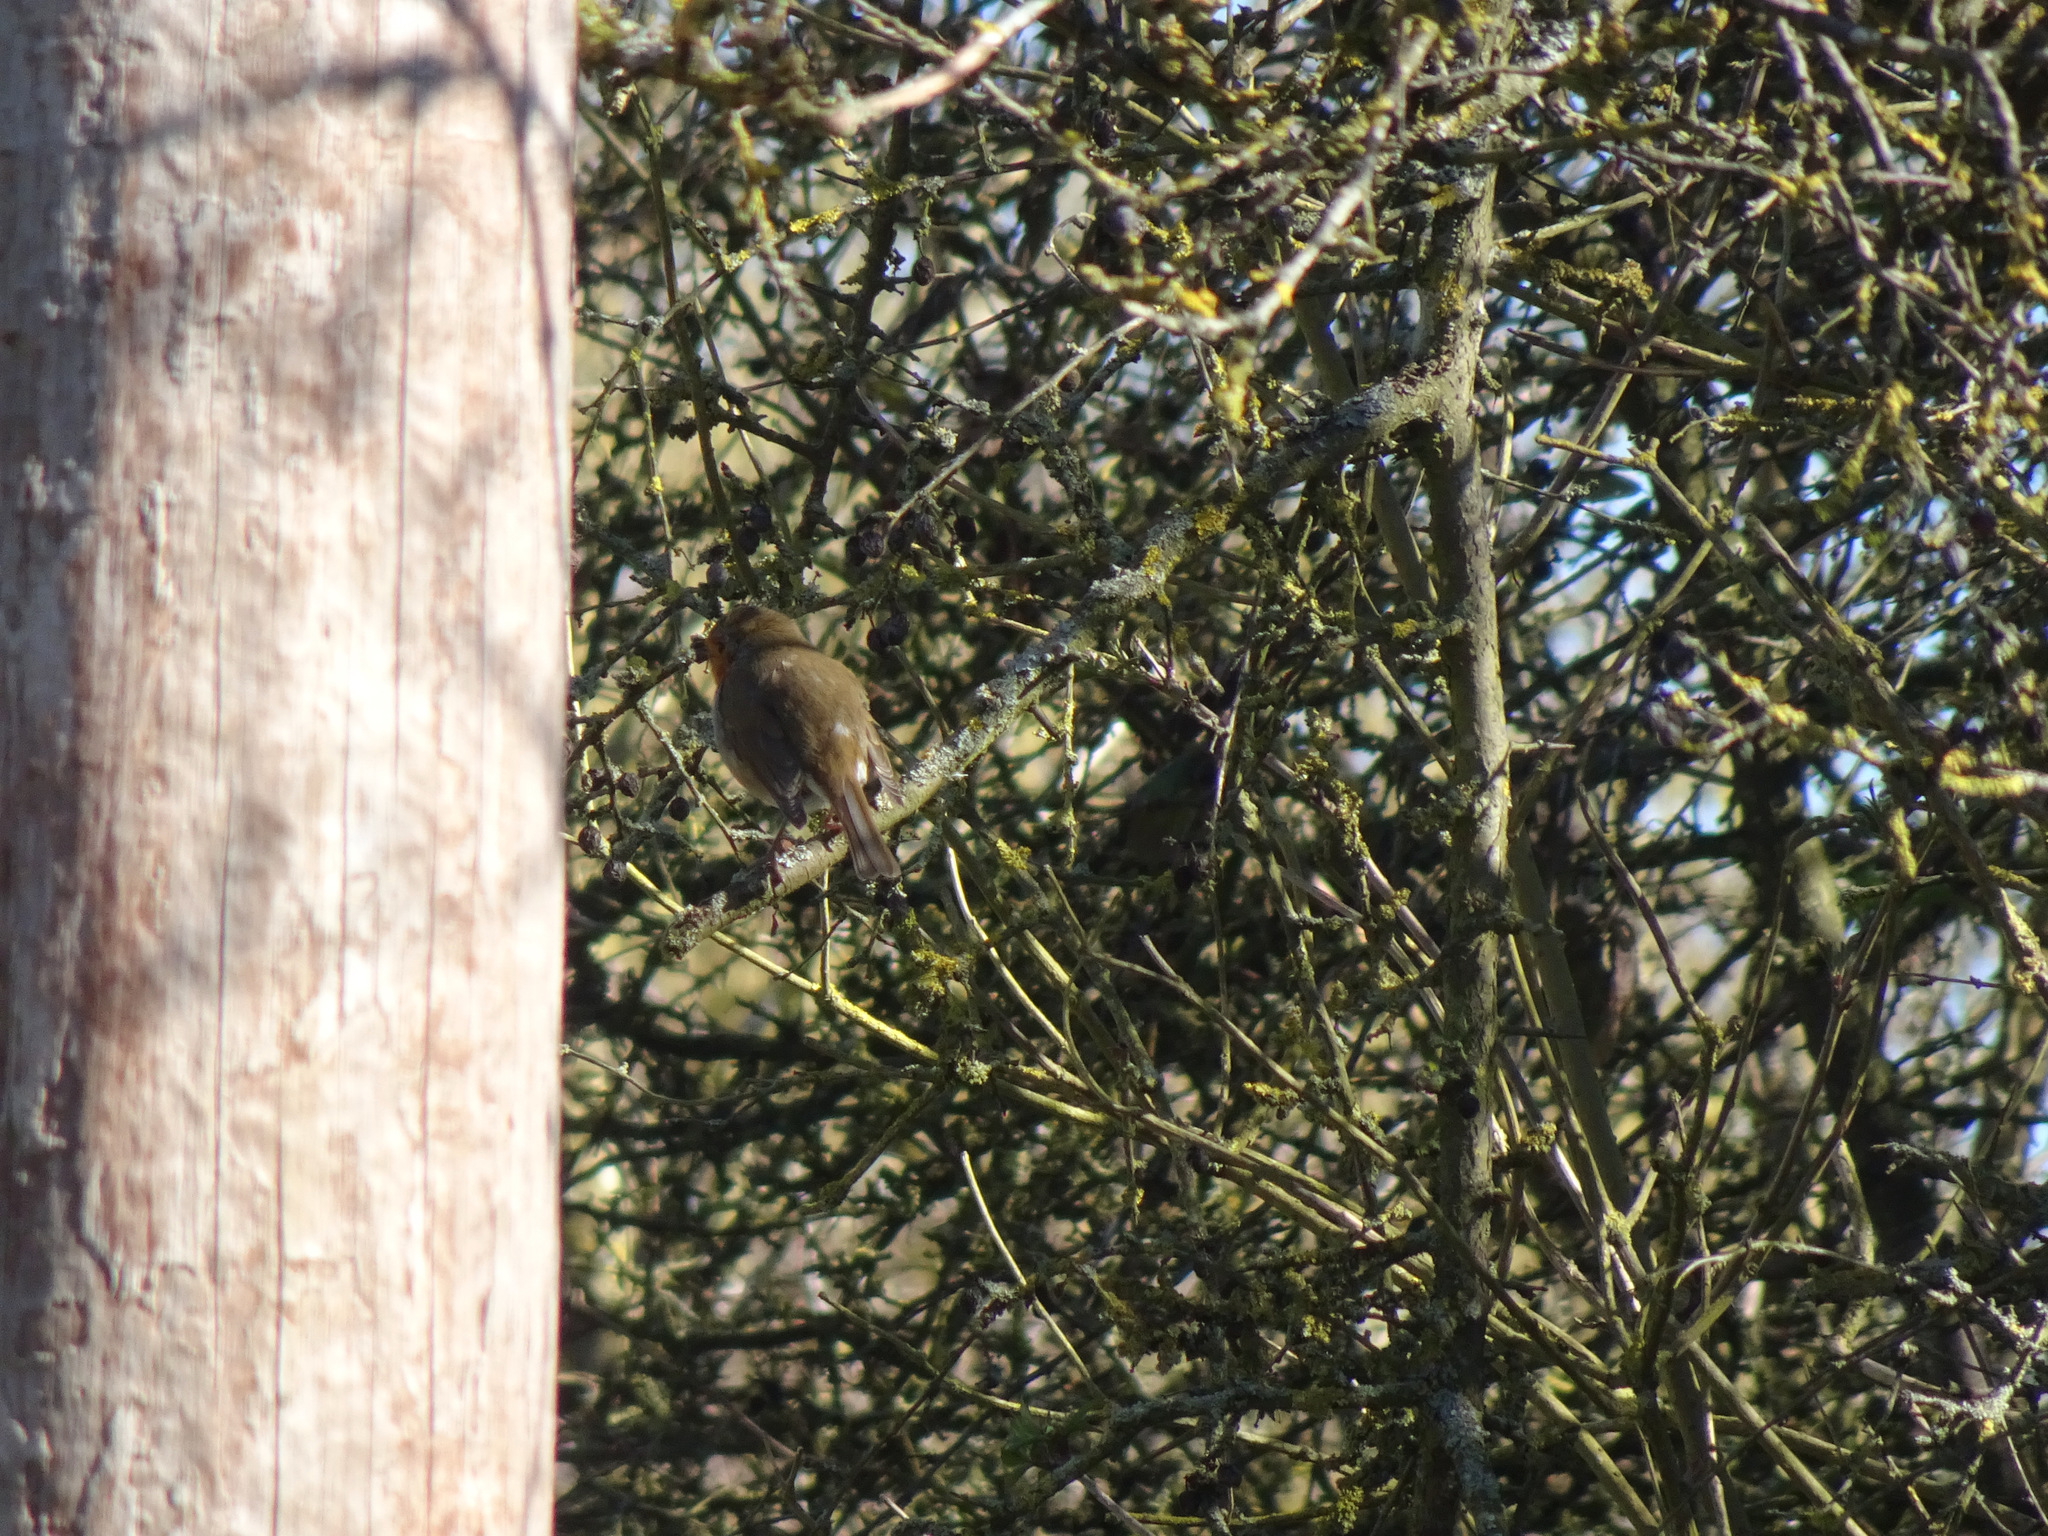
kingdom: Animalia
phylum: Chordata
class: Aves
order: Passeriformes
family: Muscicapidae
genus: Erithacus
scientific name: Erithacus rubecula
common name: European robin
